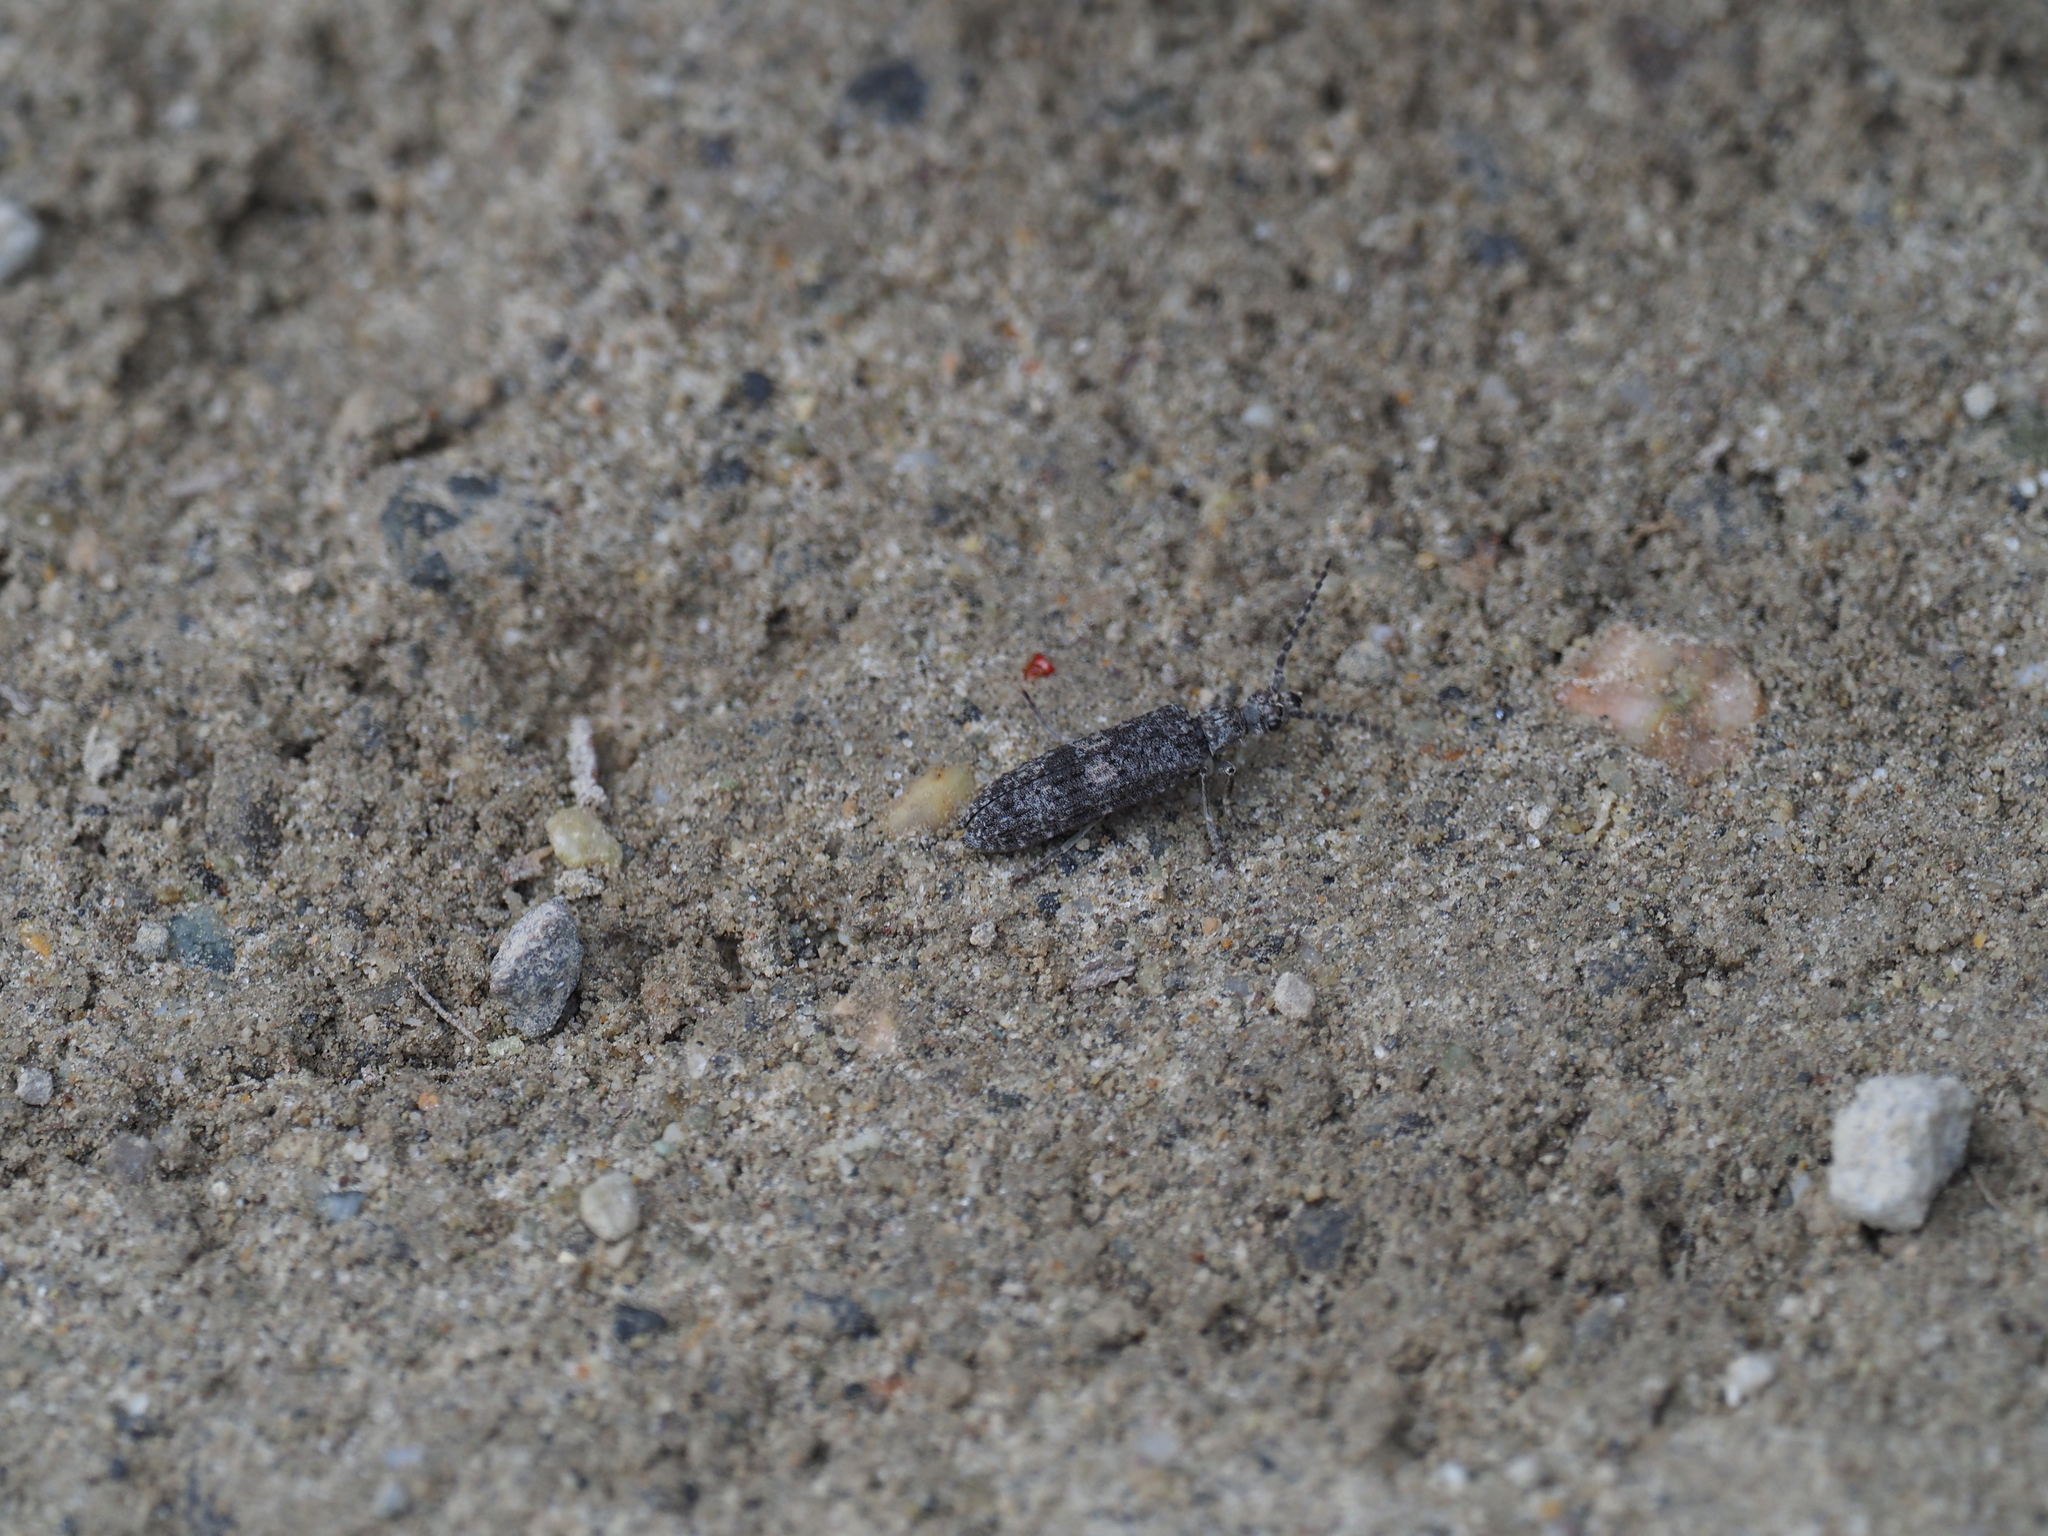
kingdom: Animalia
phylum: Arthropoda
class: Insecta
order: Coleoptera
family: Cupedidae
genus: Priacma
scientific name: Priacma serrata
